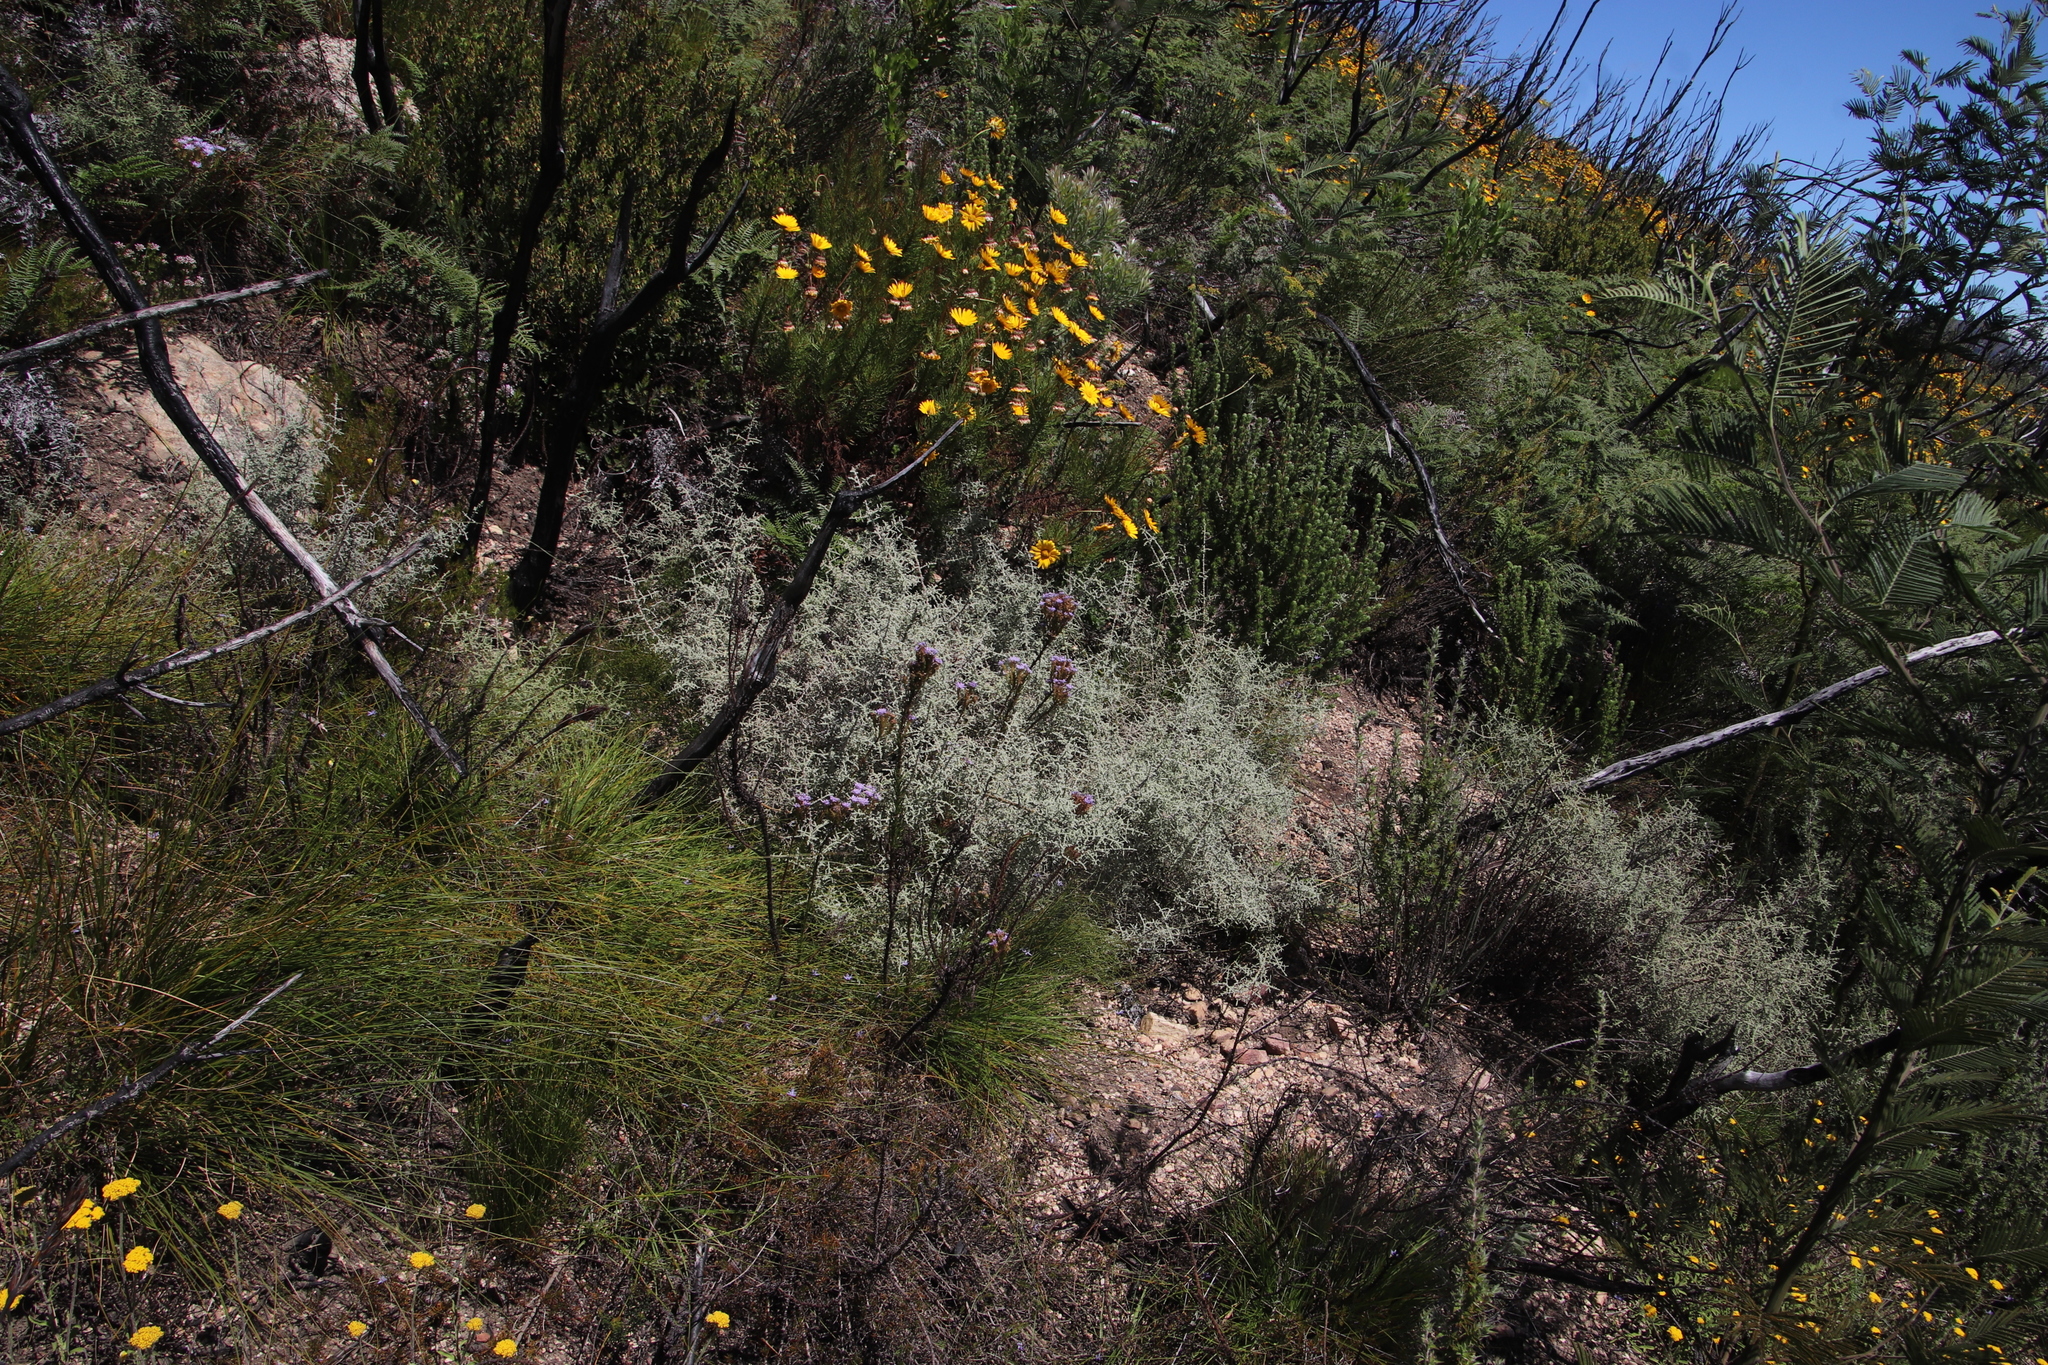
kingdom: Plantae
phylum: Tracheophyta
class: Magnoliopsida
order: Asterales
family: Asteraceae
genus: Seriphium
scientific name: Seriphium plumosum
